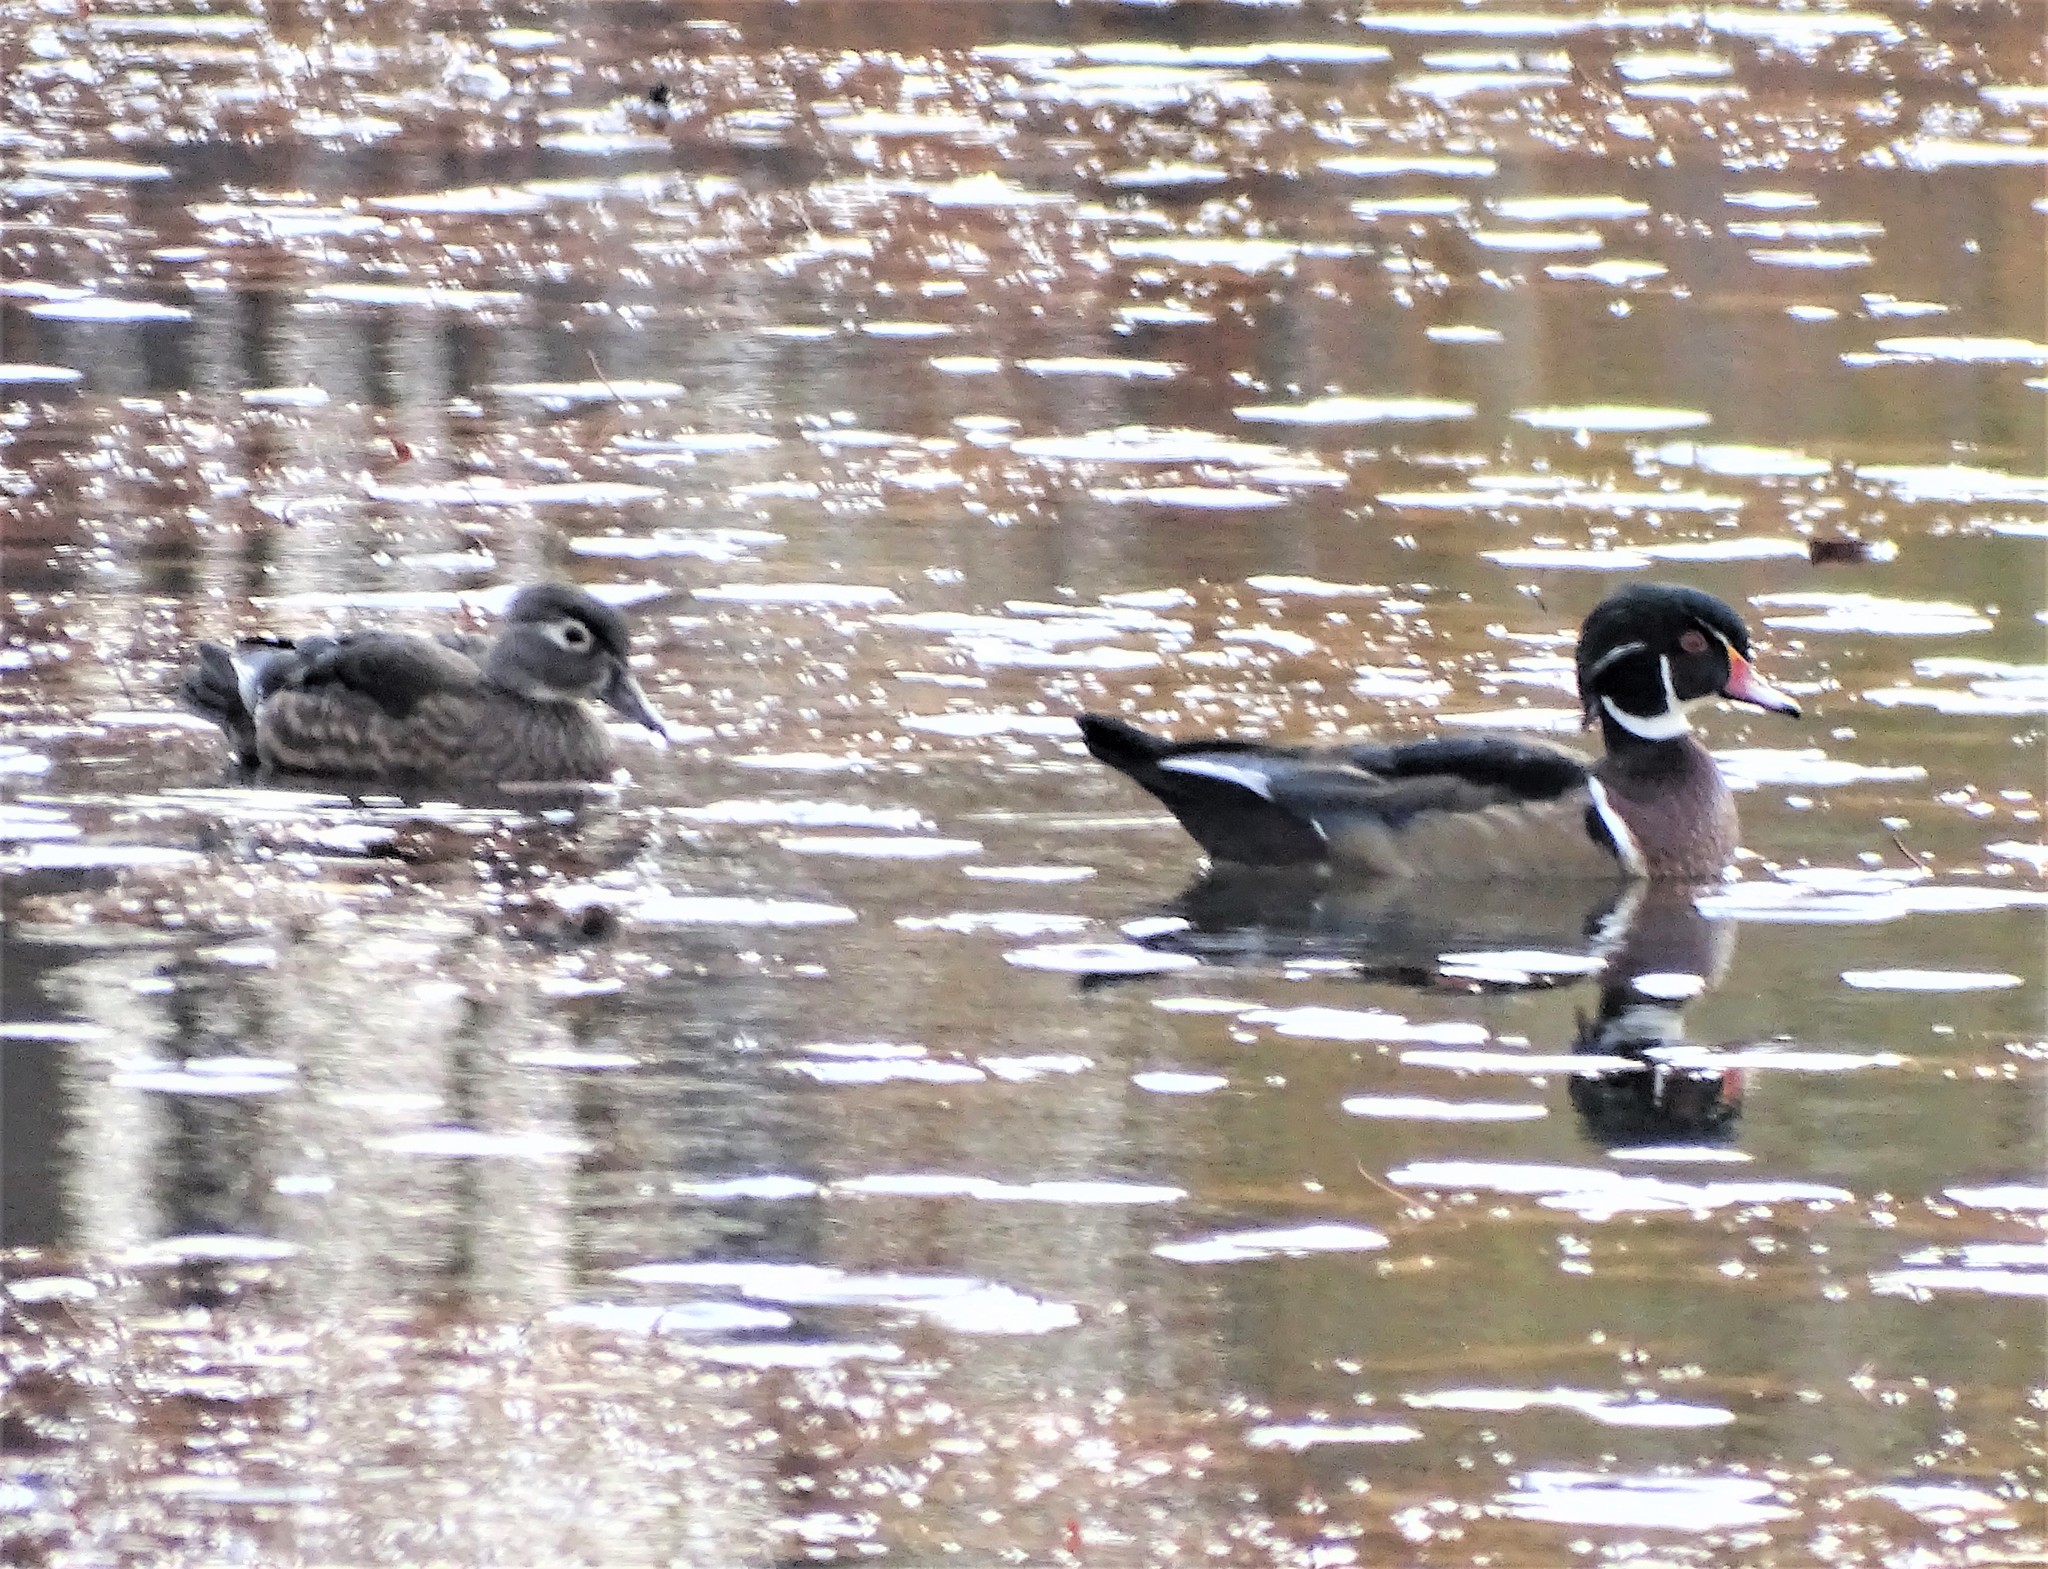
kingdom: Animalia
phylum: Chordata
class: Aves
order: Anseriformes
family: Anatidae
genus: Aix
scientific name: Aix sponsa
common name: Wood duck
